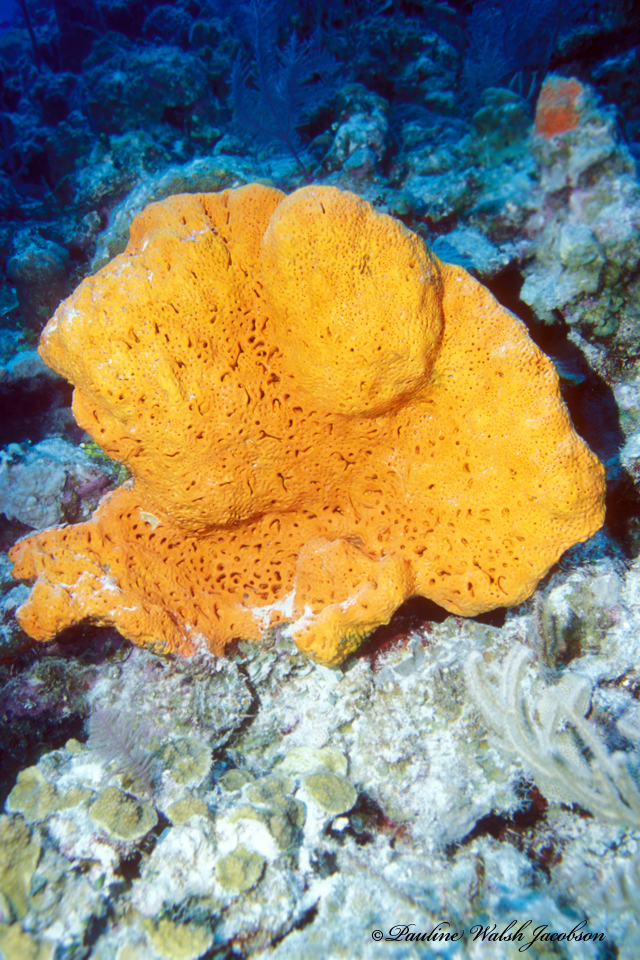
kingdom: Animalia
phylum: Porifera
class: Demospongiae
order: Agelasida
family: Agelasidae
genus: Agelas
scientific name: Agelas clathrodes
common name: Orange elephant ear sponge
